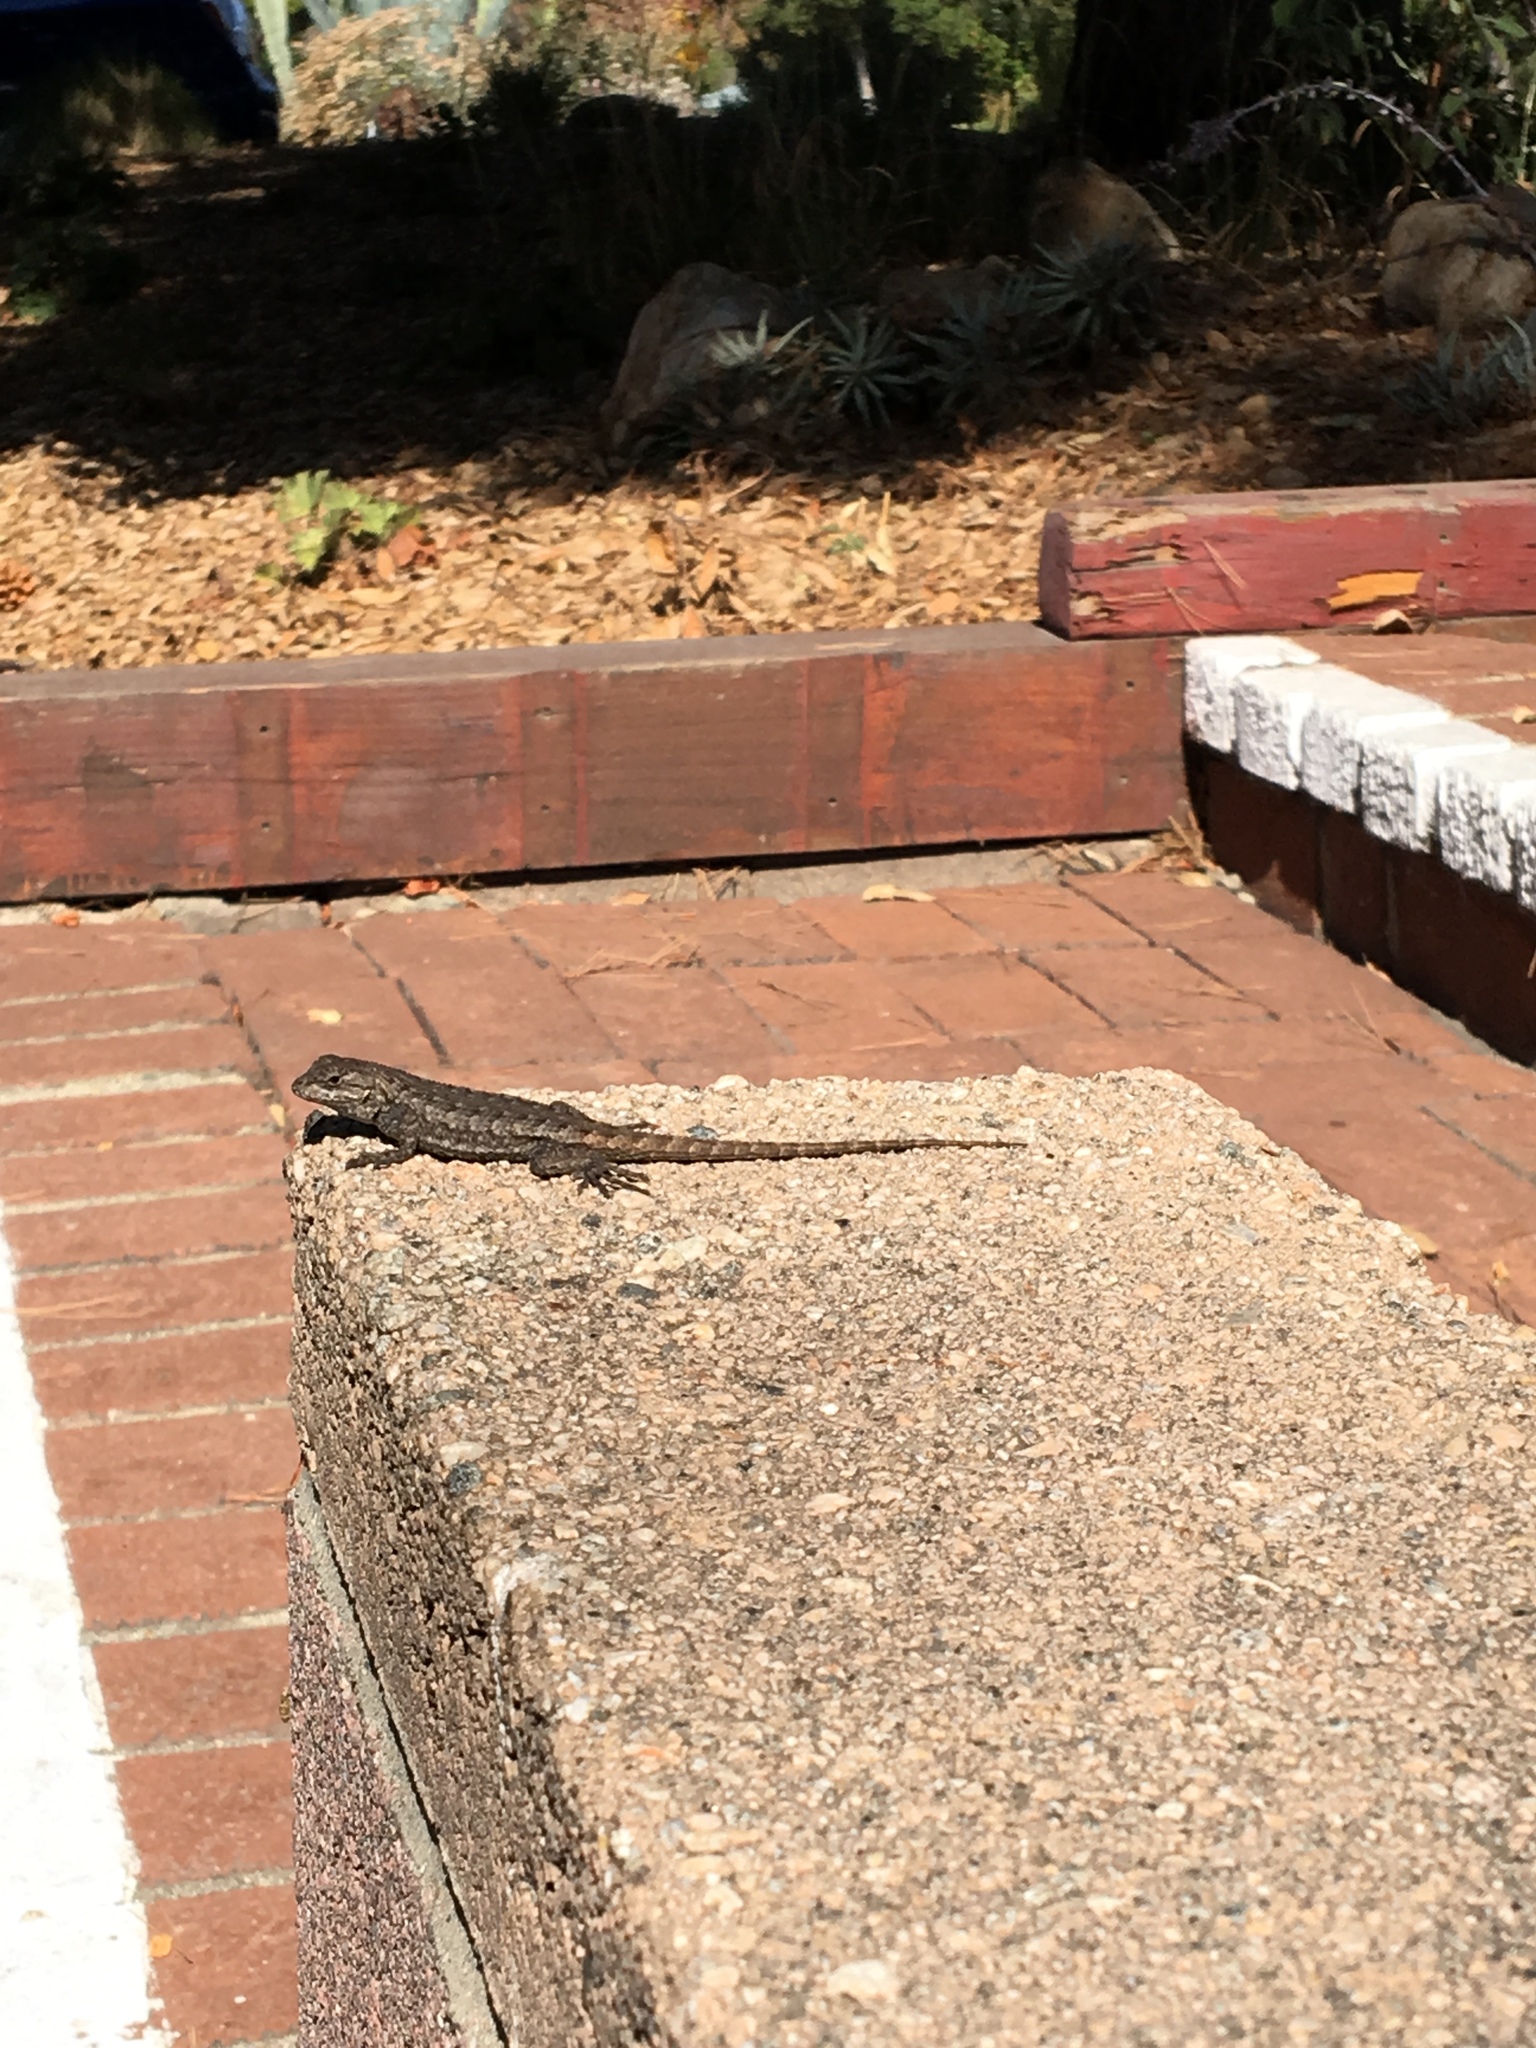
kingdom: Animalia
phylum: Chordata
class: Squamata
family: Phrynosomatidae
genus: Sceloporus
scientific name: Sceloporus occidentalis
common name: Western fence lizard
